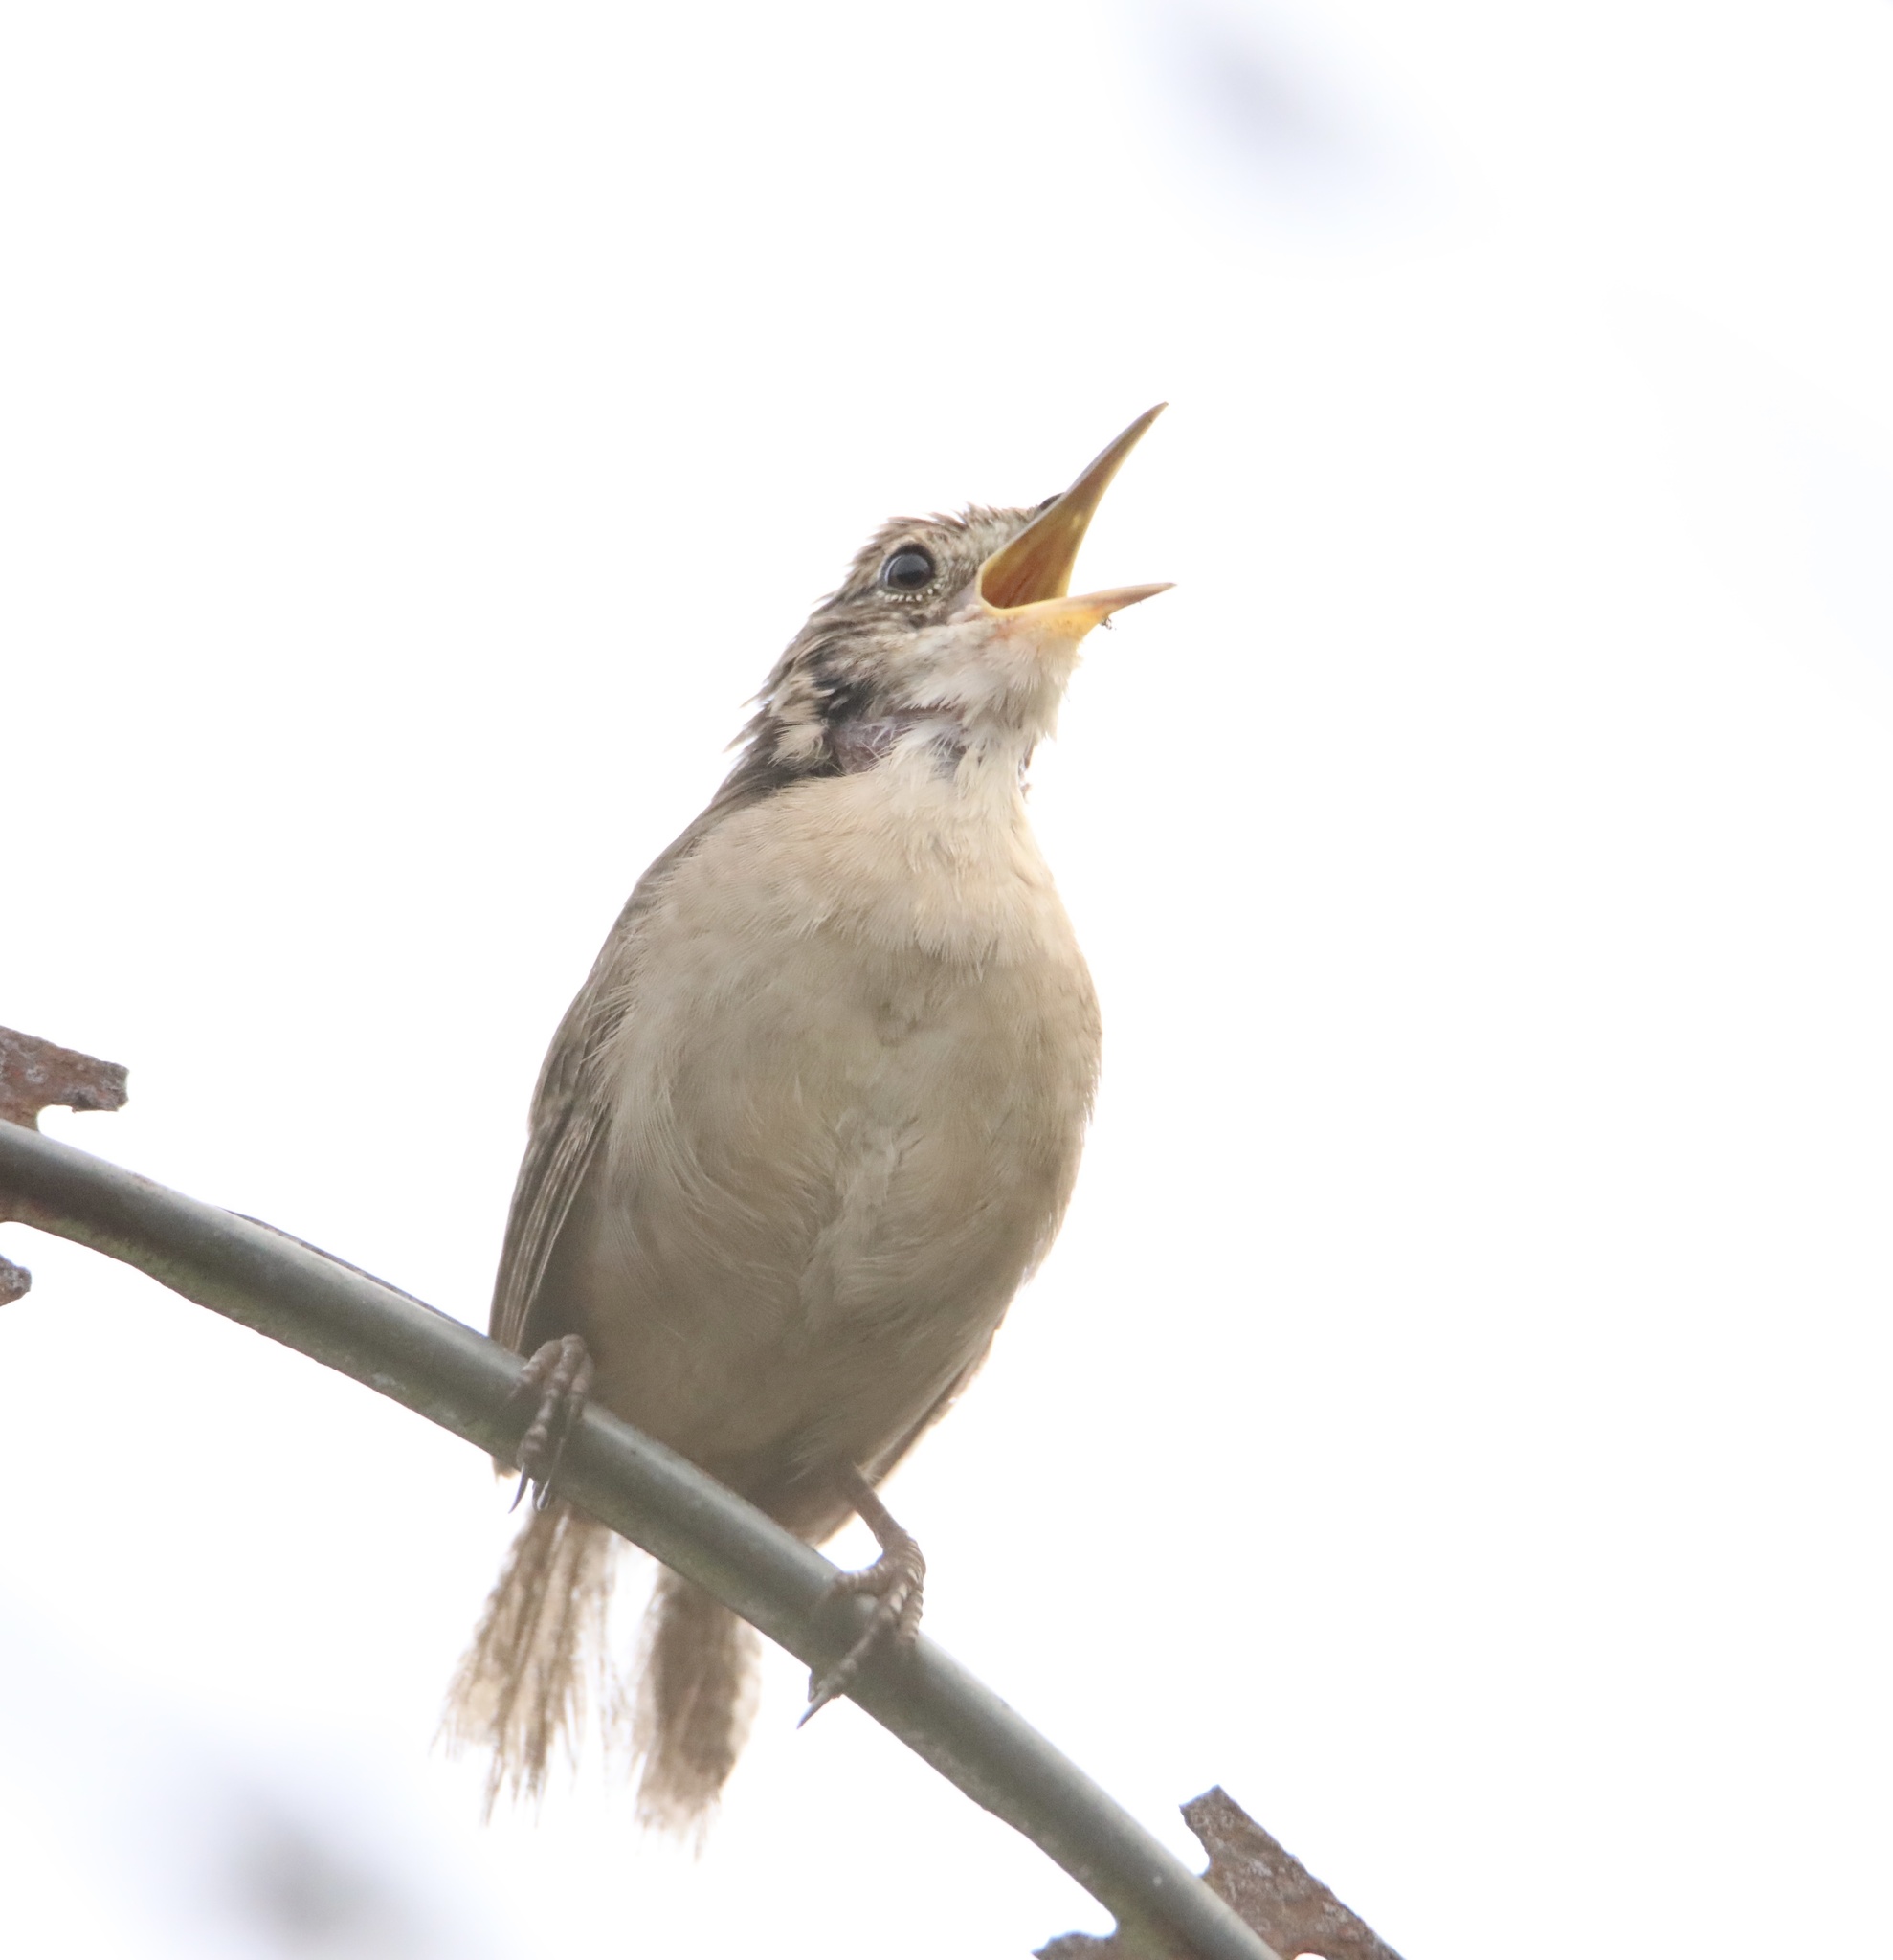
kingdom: Animalia
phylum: Chordata
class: Aves
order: Passeriformes
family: Troglodytidae
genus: Troglodytes
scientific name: Troglodytes aedon
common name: House wren
